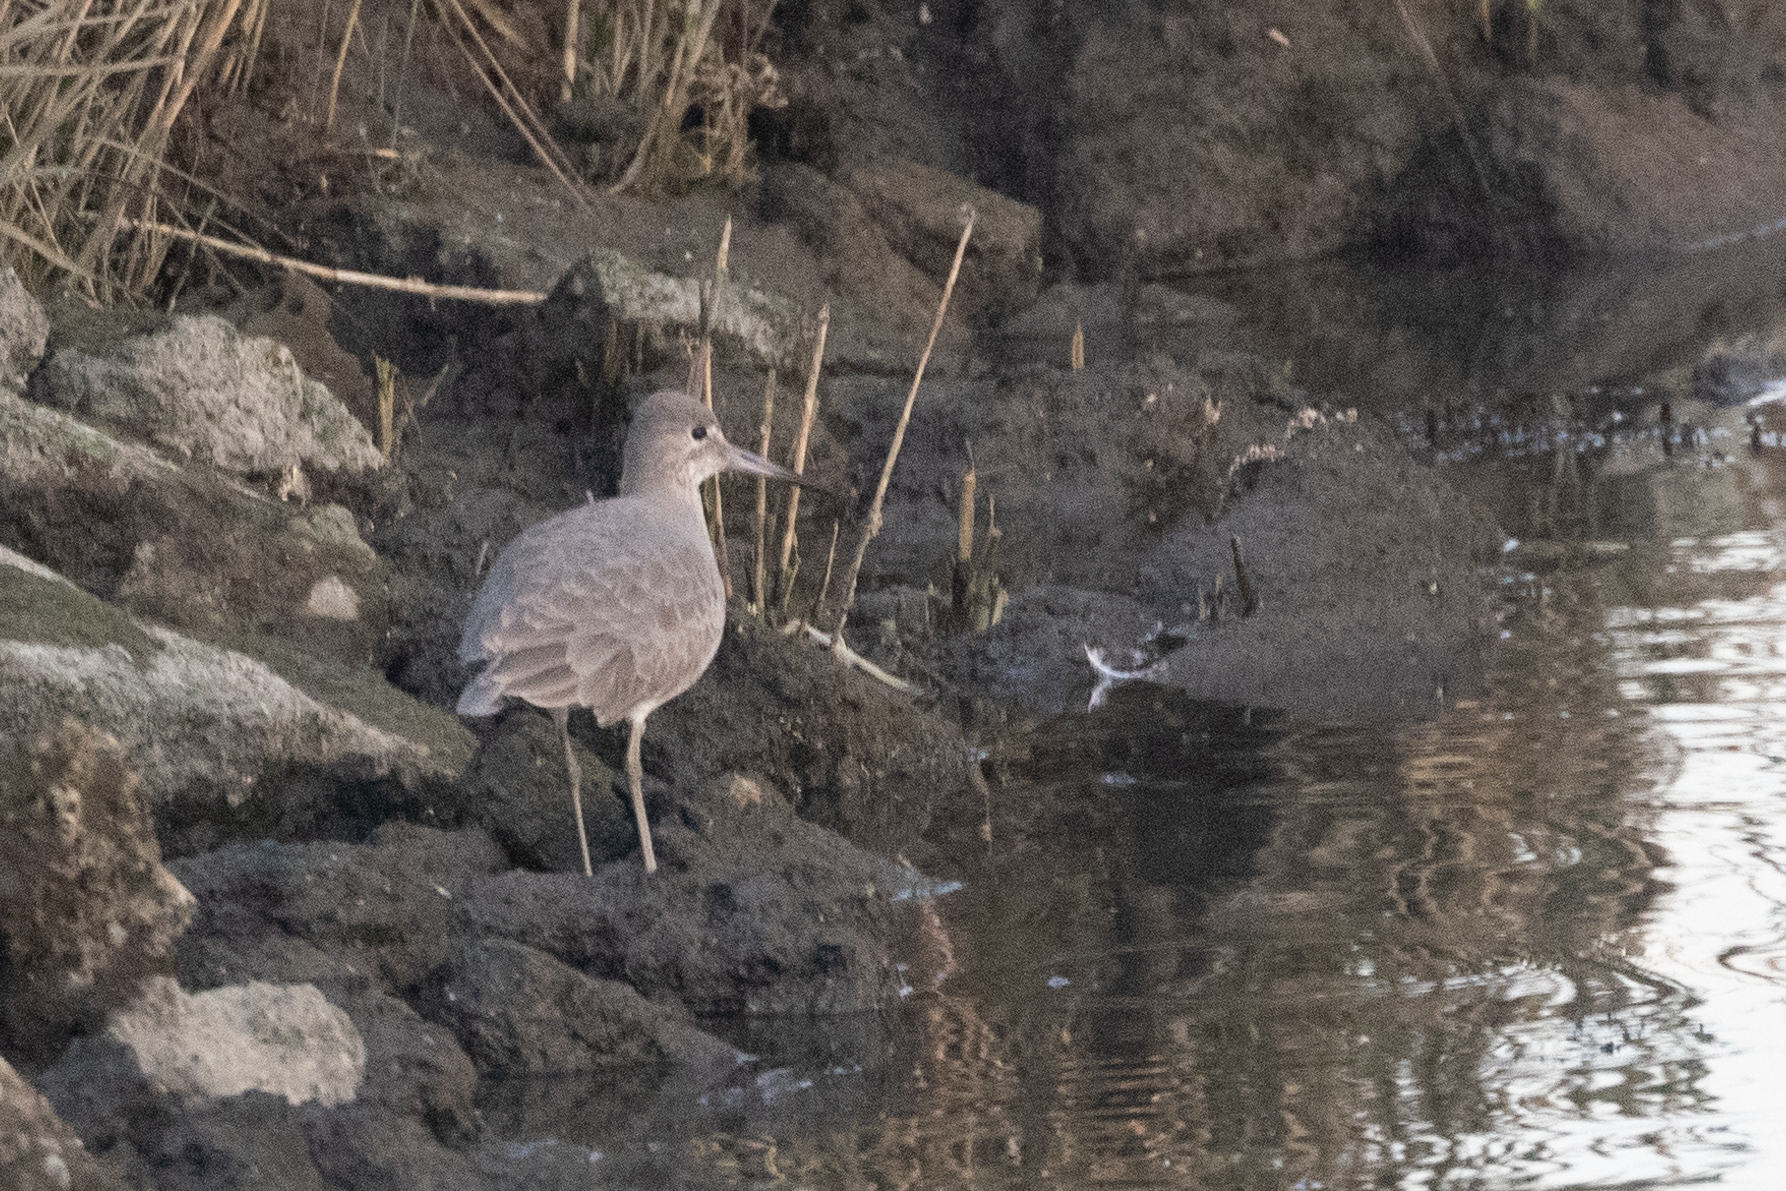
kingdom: Animalia
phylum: Chordata
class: Aves
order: Charadriiformes
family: Scolopacidae
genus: Tringa
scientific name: Tringa semipalmata
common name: Willet
